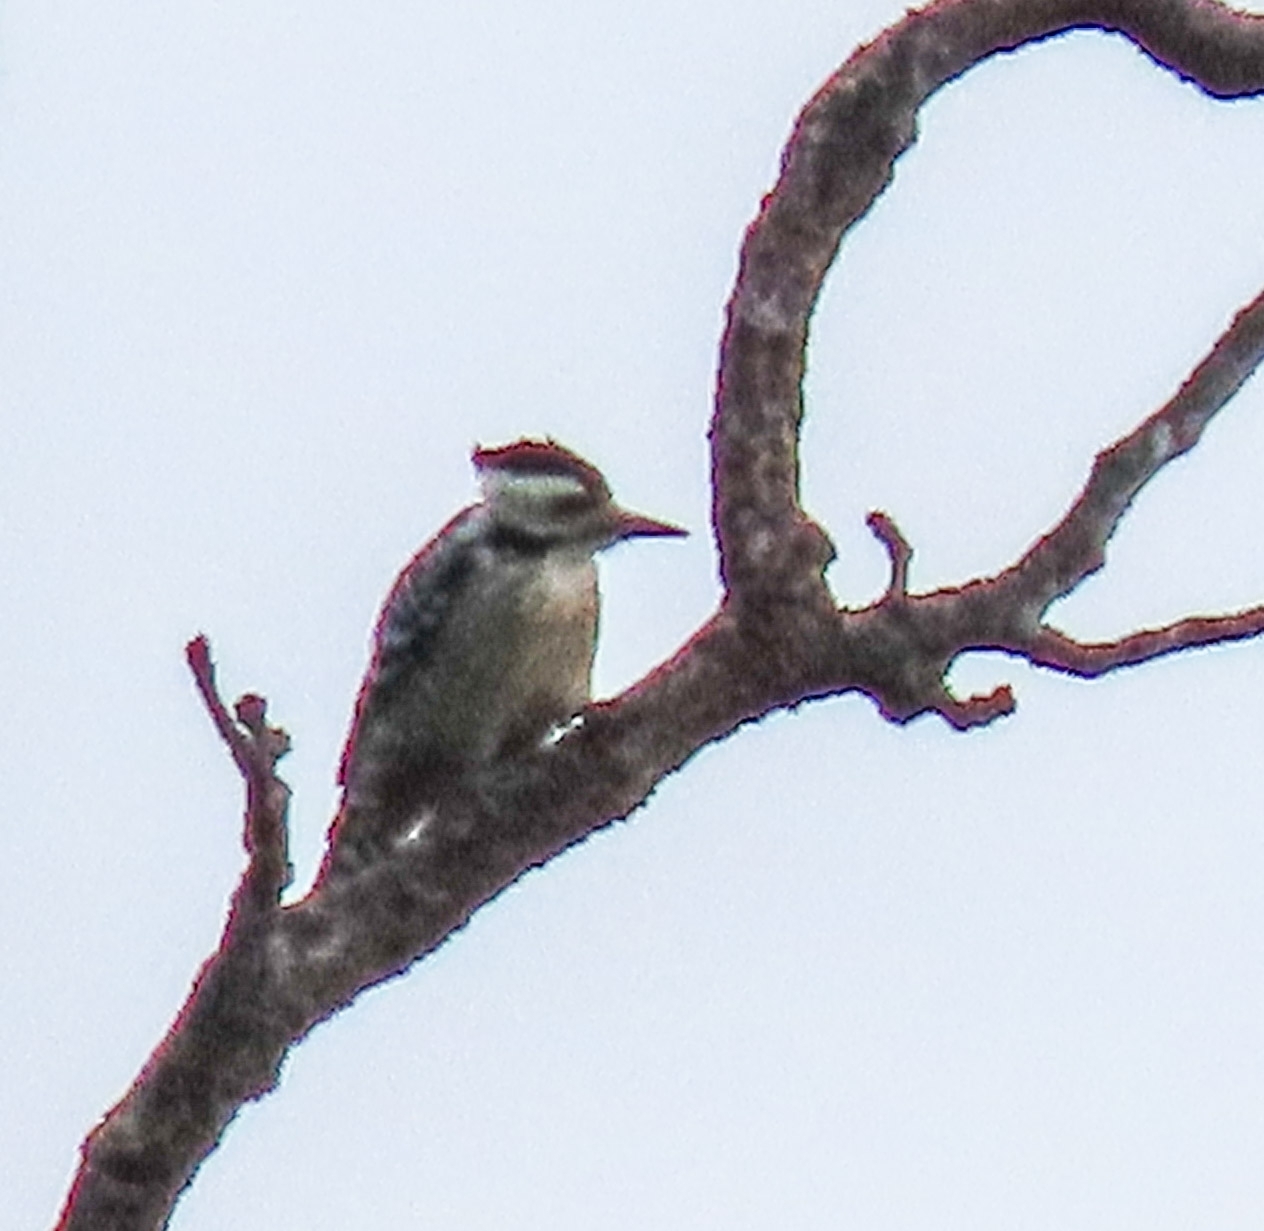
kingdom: Animalia
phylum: Chordata
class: Aves
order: Piciformes
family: Picidae
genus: Dendrocopos
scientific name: Dendrocopos analis
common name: Freckle-breasted woodpecker
